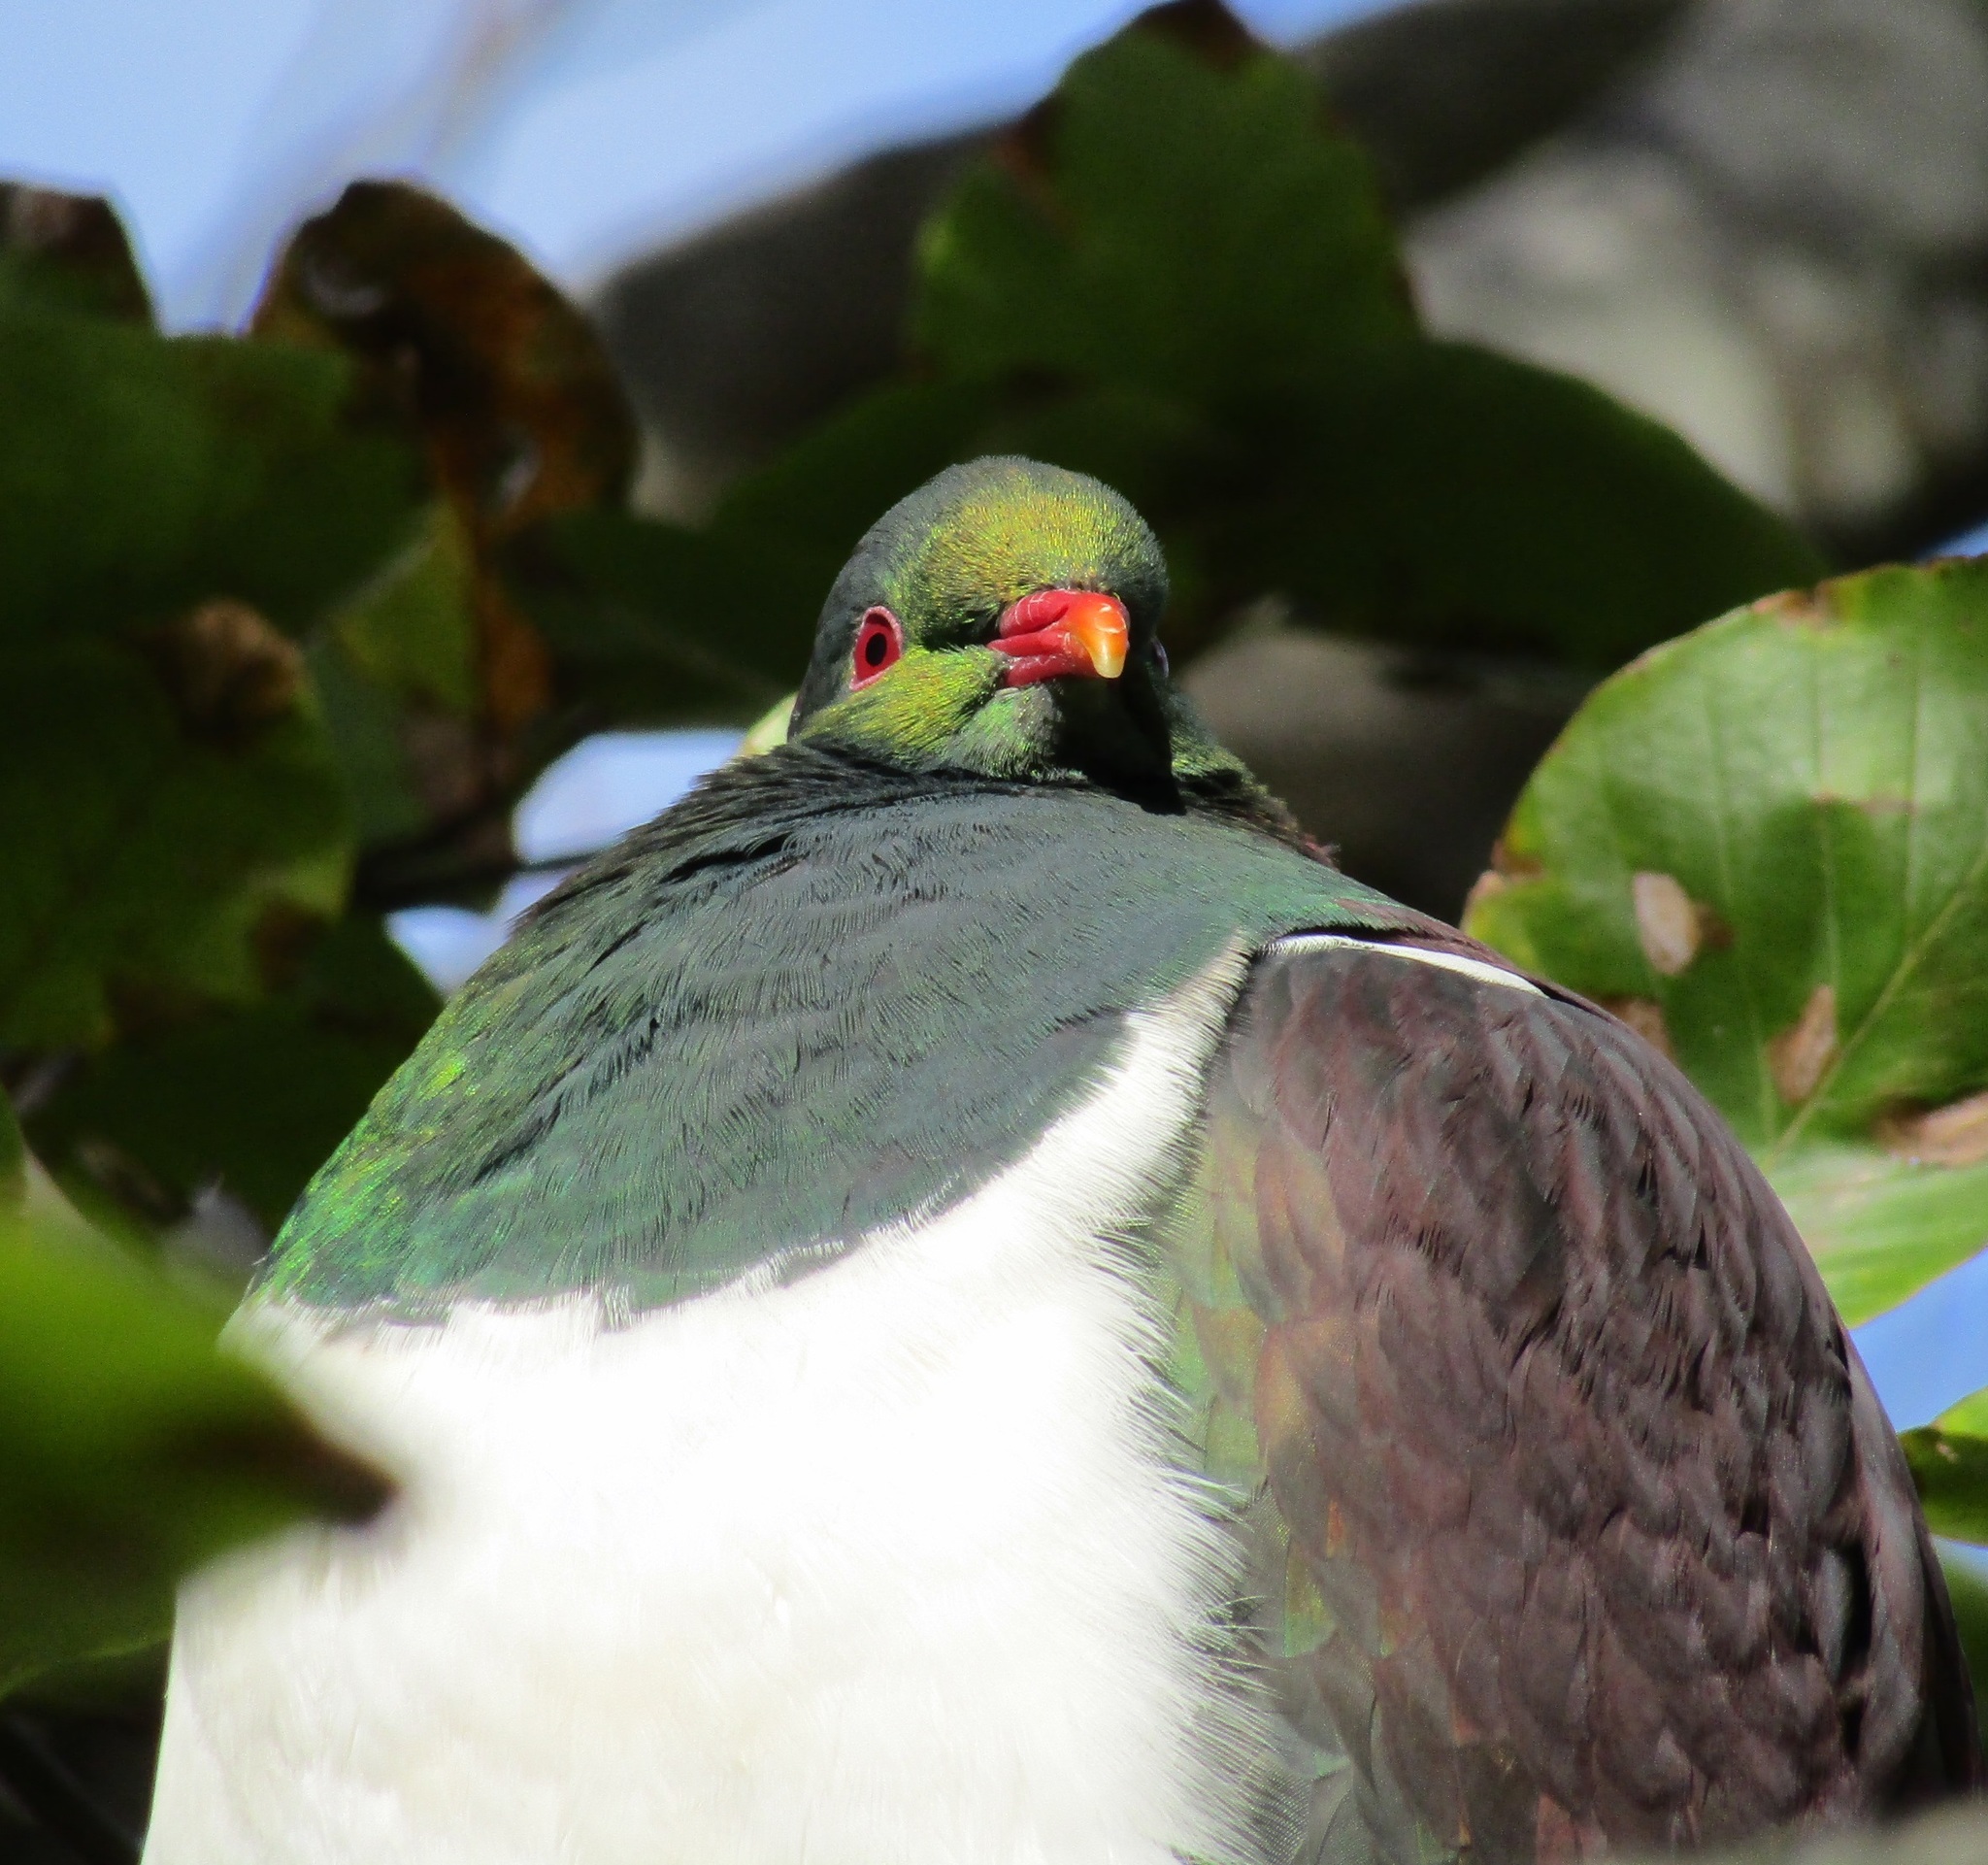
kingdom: Animalia
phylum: Chordata
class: Aves
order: Columbiformes
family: Columbidae
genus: Hemiphaga
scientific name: Hemiphaga novaeseelandiae
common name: New zealand pigeon
